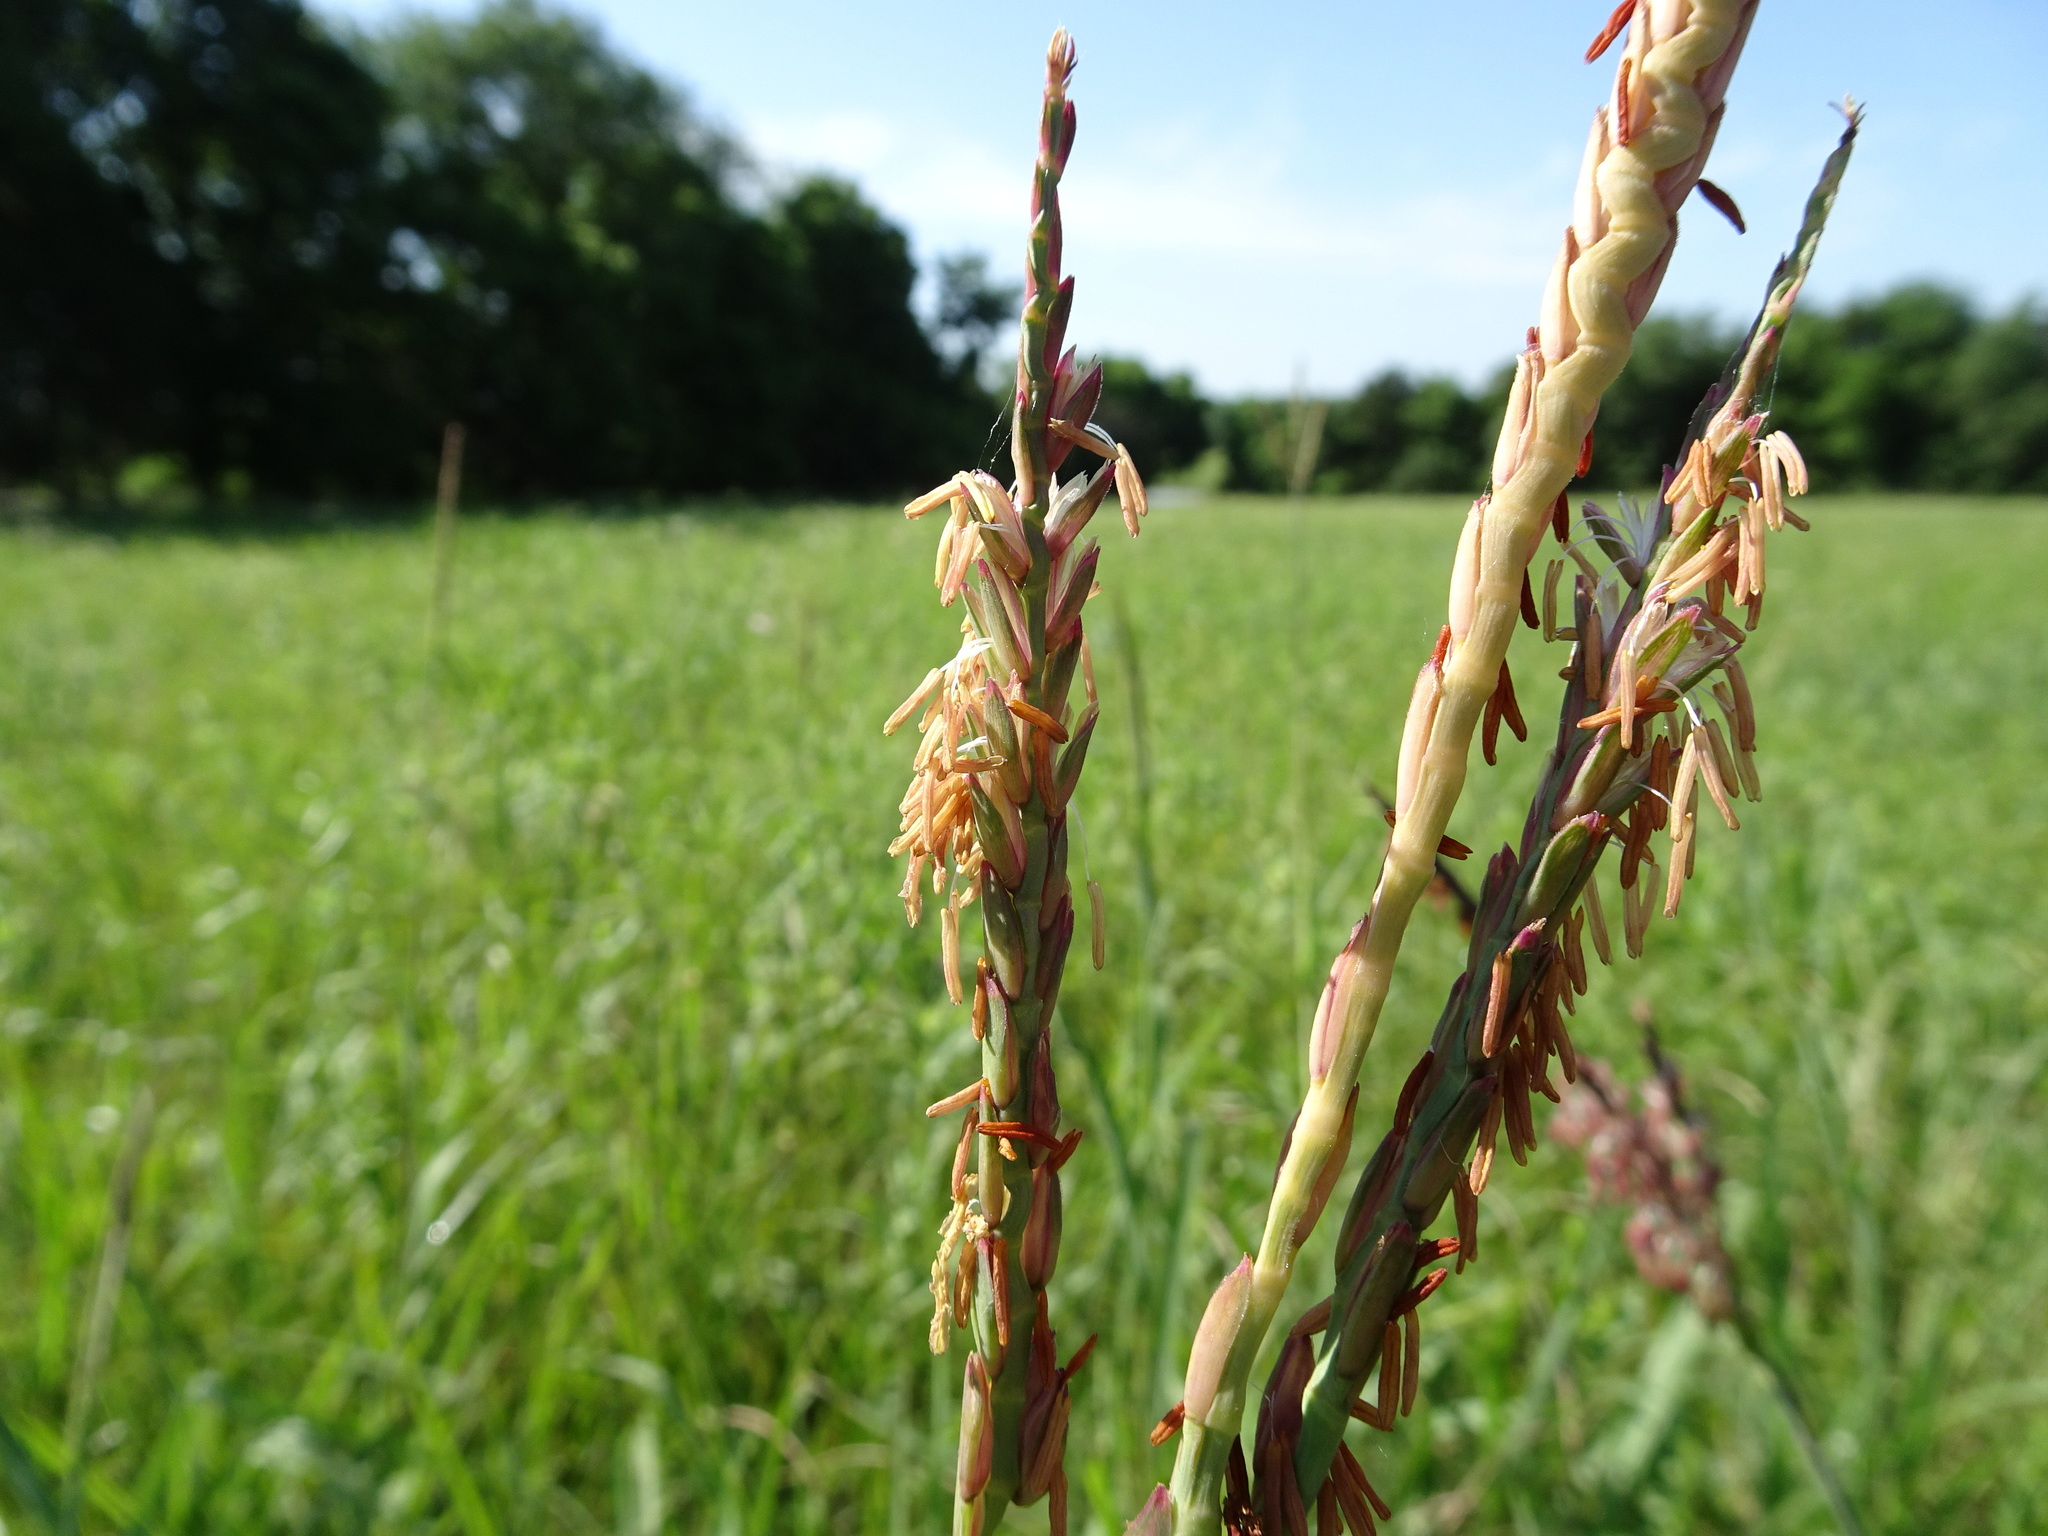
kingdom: Plantae
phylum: Tracheophyta
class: Liliopsida
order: Poales
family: Poaceae
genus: Tripsacum
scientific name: Tripsacum dactyloides
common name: Buffalo-grass
